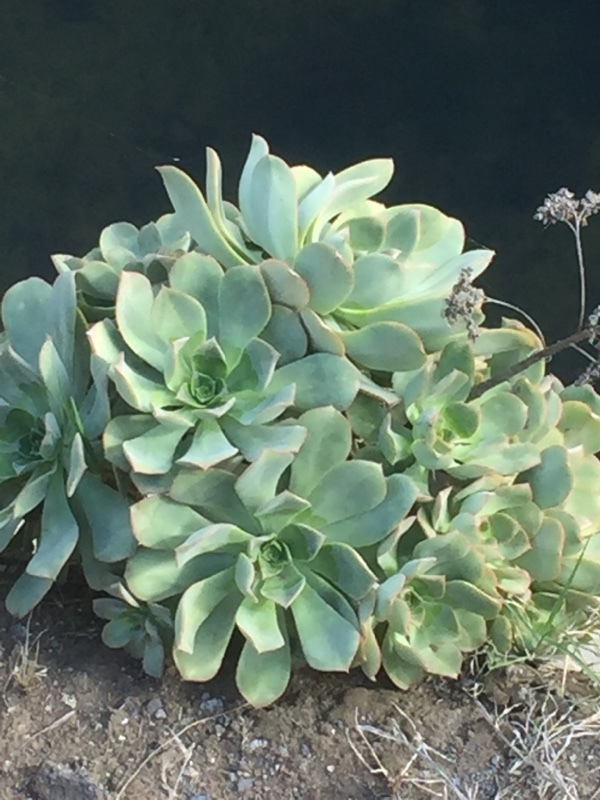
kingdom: Plantae
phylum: Tracheophyta
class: Magnoliopsida
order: Saxifragales
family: Crassulaceae
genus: Aeonium
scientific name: Aeonium davidbramwellii
